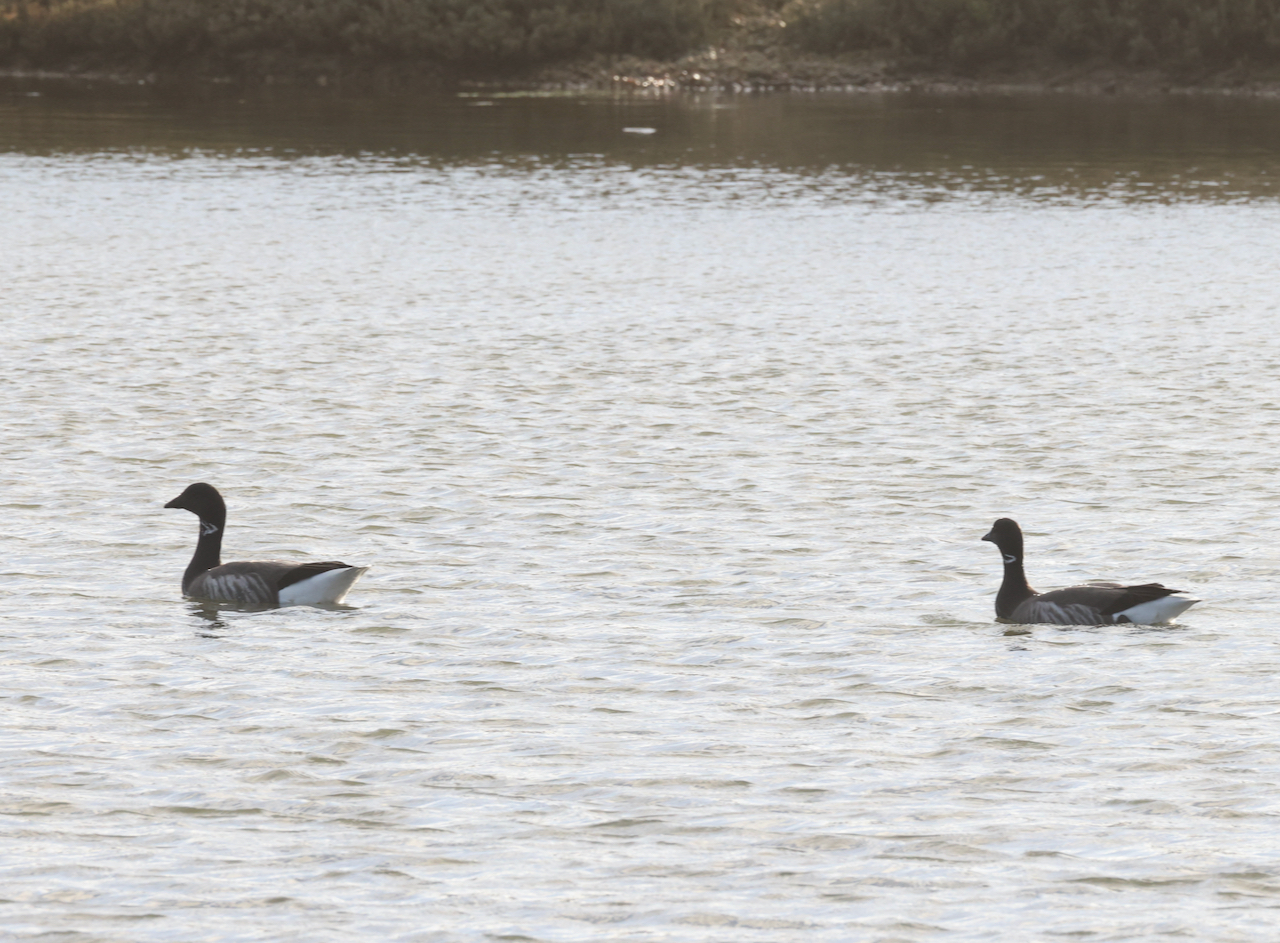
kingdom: Animalia
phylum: Chordata
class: Aves
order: Anseriformes
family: Anatidae
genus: Branta
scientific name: Branta bernicla
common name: Brant goose
